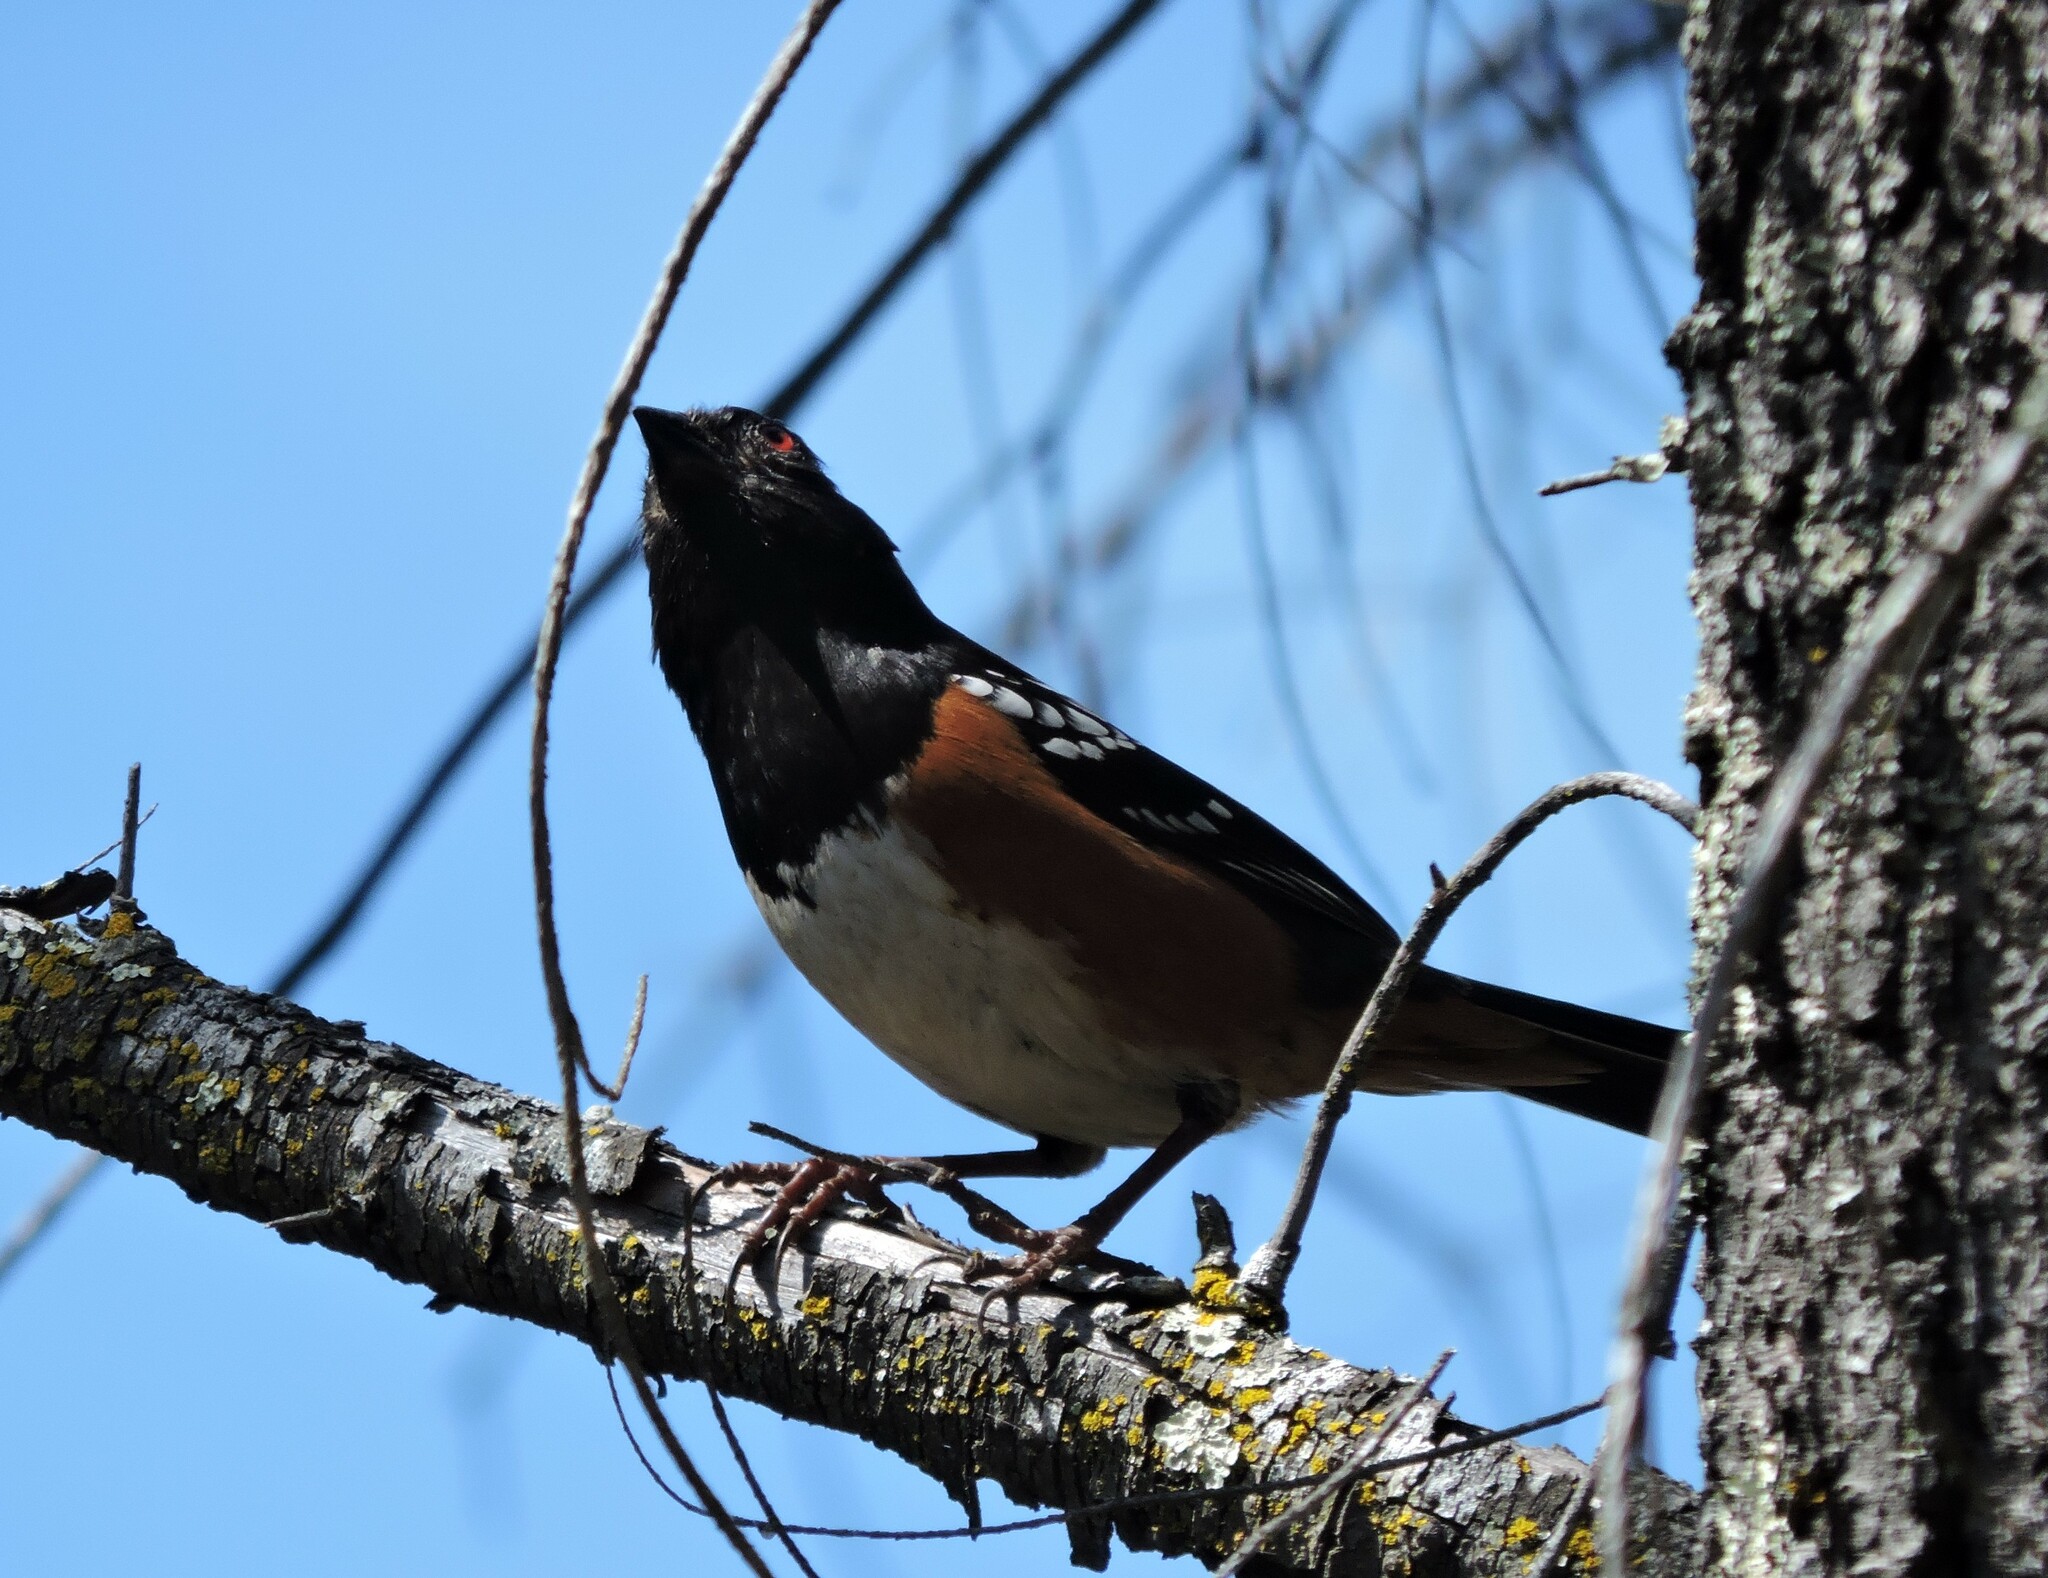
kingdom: Animalia
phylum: Chordata
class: Aves
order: Passeriformes
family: Passerellidae
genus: Pipilo
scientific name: Pipilo maculatus
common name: Spotted towhee
